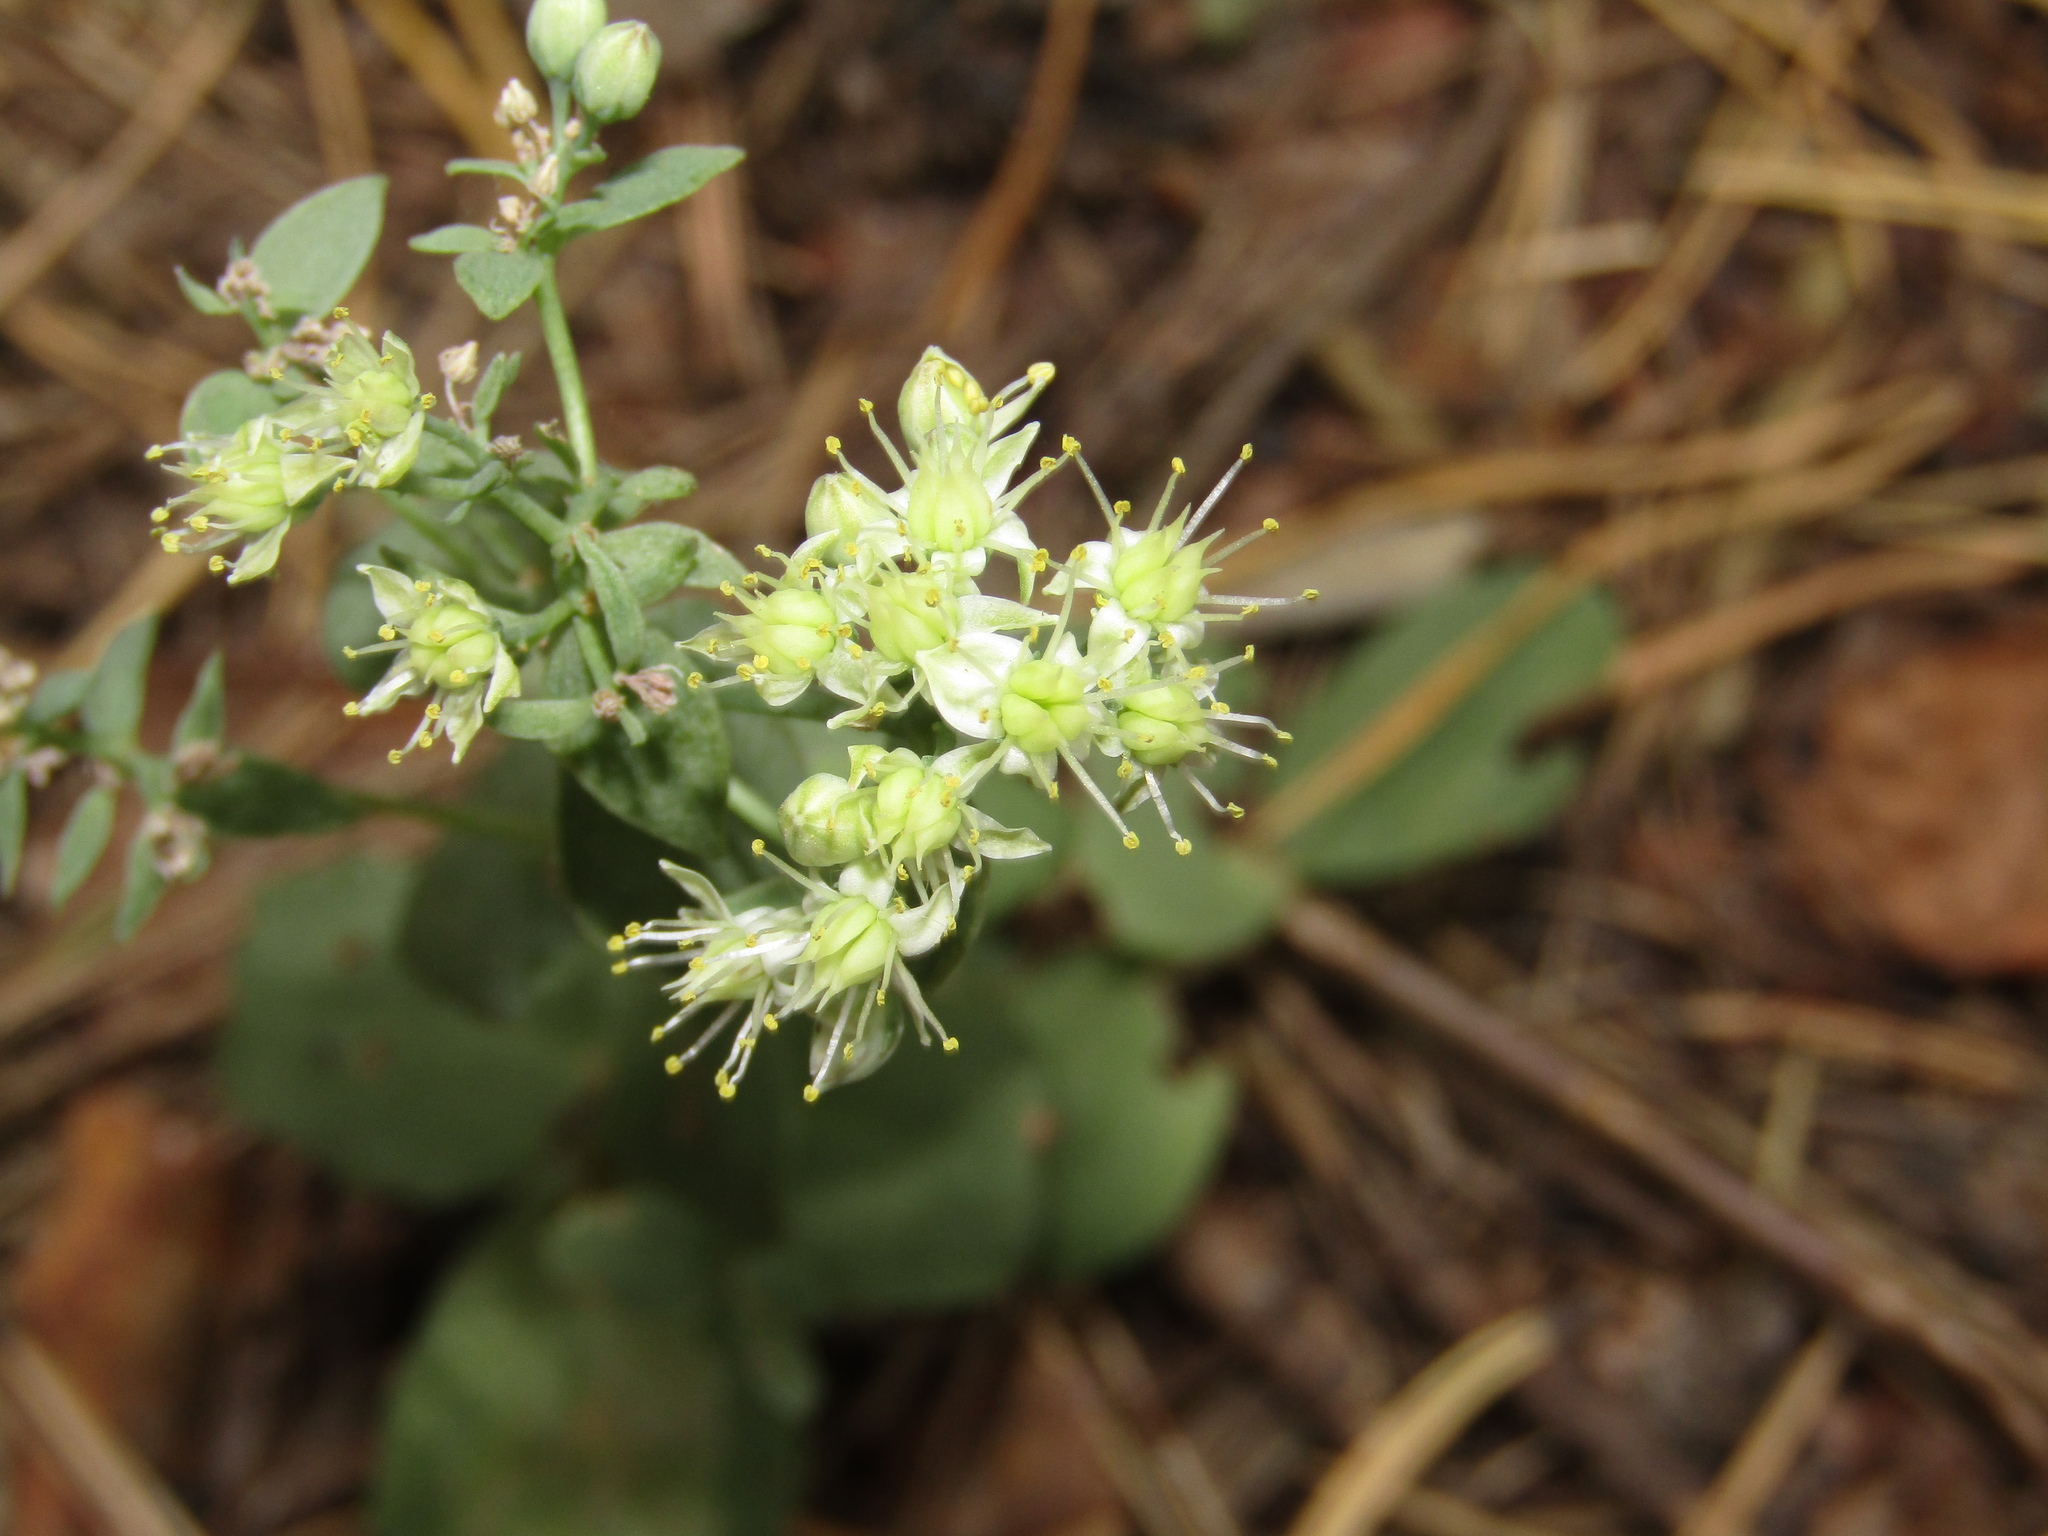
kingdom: Plantae
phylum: Tracheophyta
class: Magnoliopsida
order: Saxifragales
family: Crassulaceae
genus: Hylotelephium
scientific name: Hylotelephium maximum
